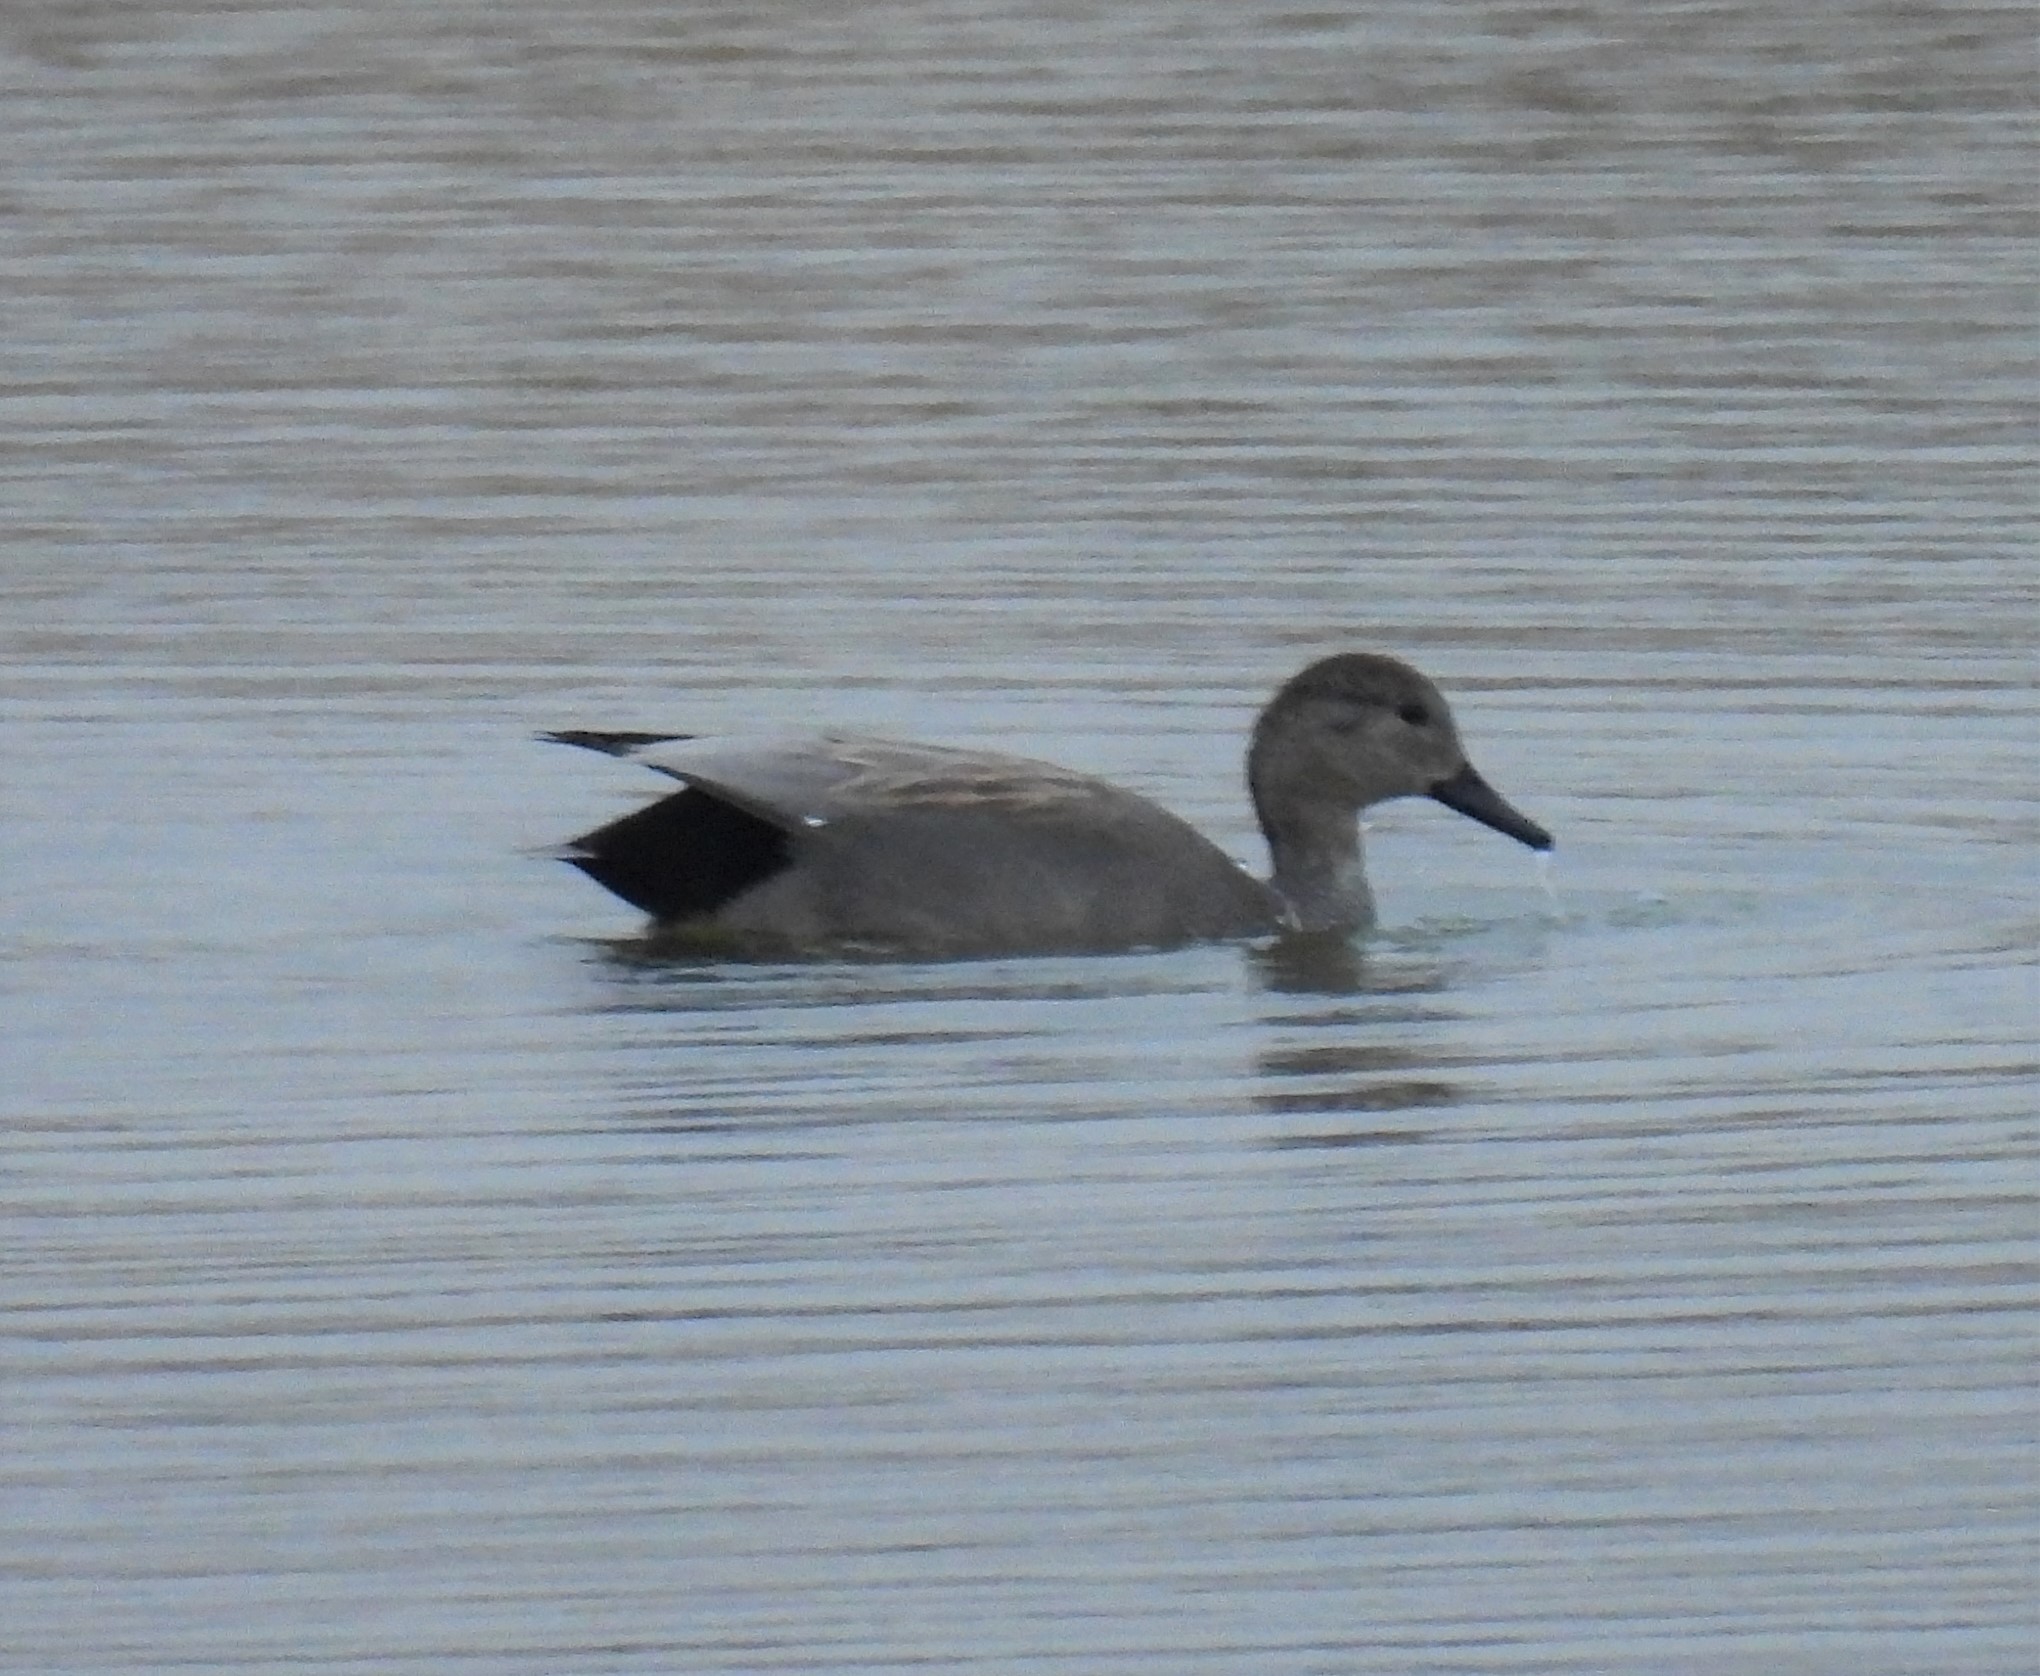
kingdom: Animalia
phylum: Chordata
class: Aves
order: Anseriformes
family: Anatidae
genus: Mareca
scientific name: Mareca strepera
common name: Gadwall
